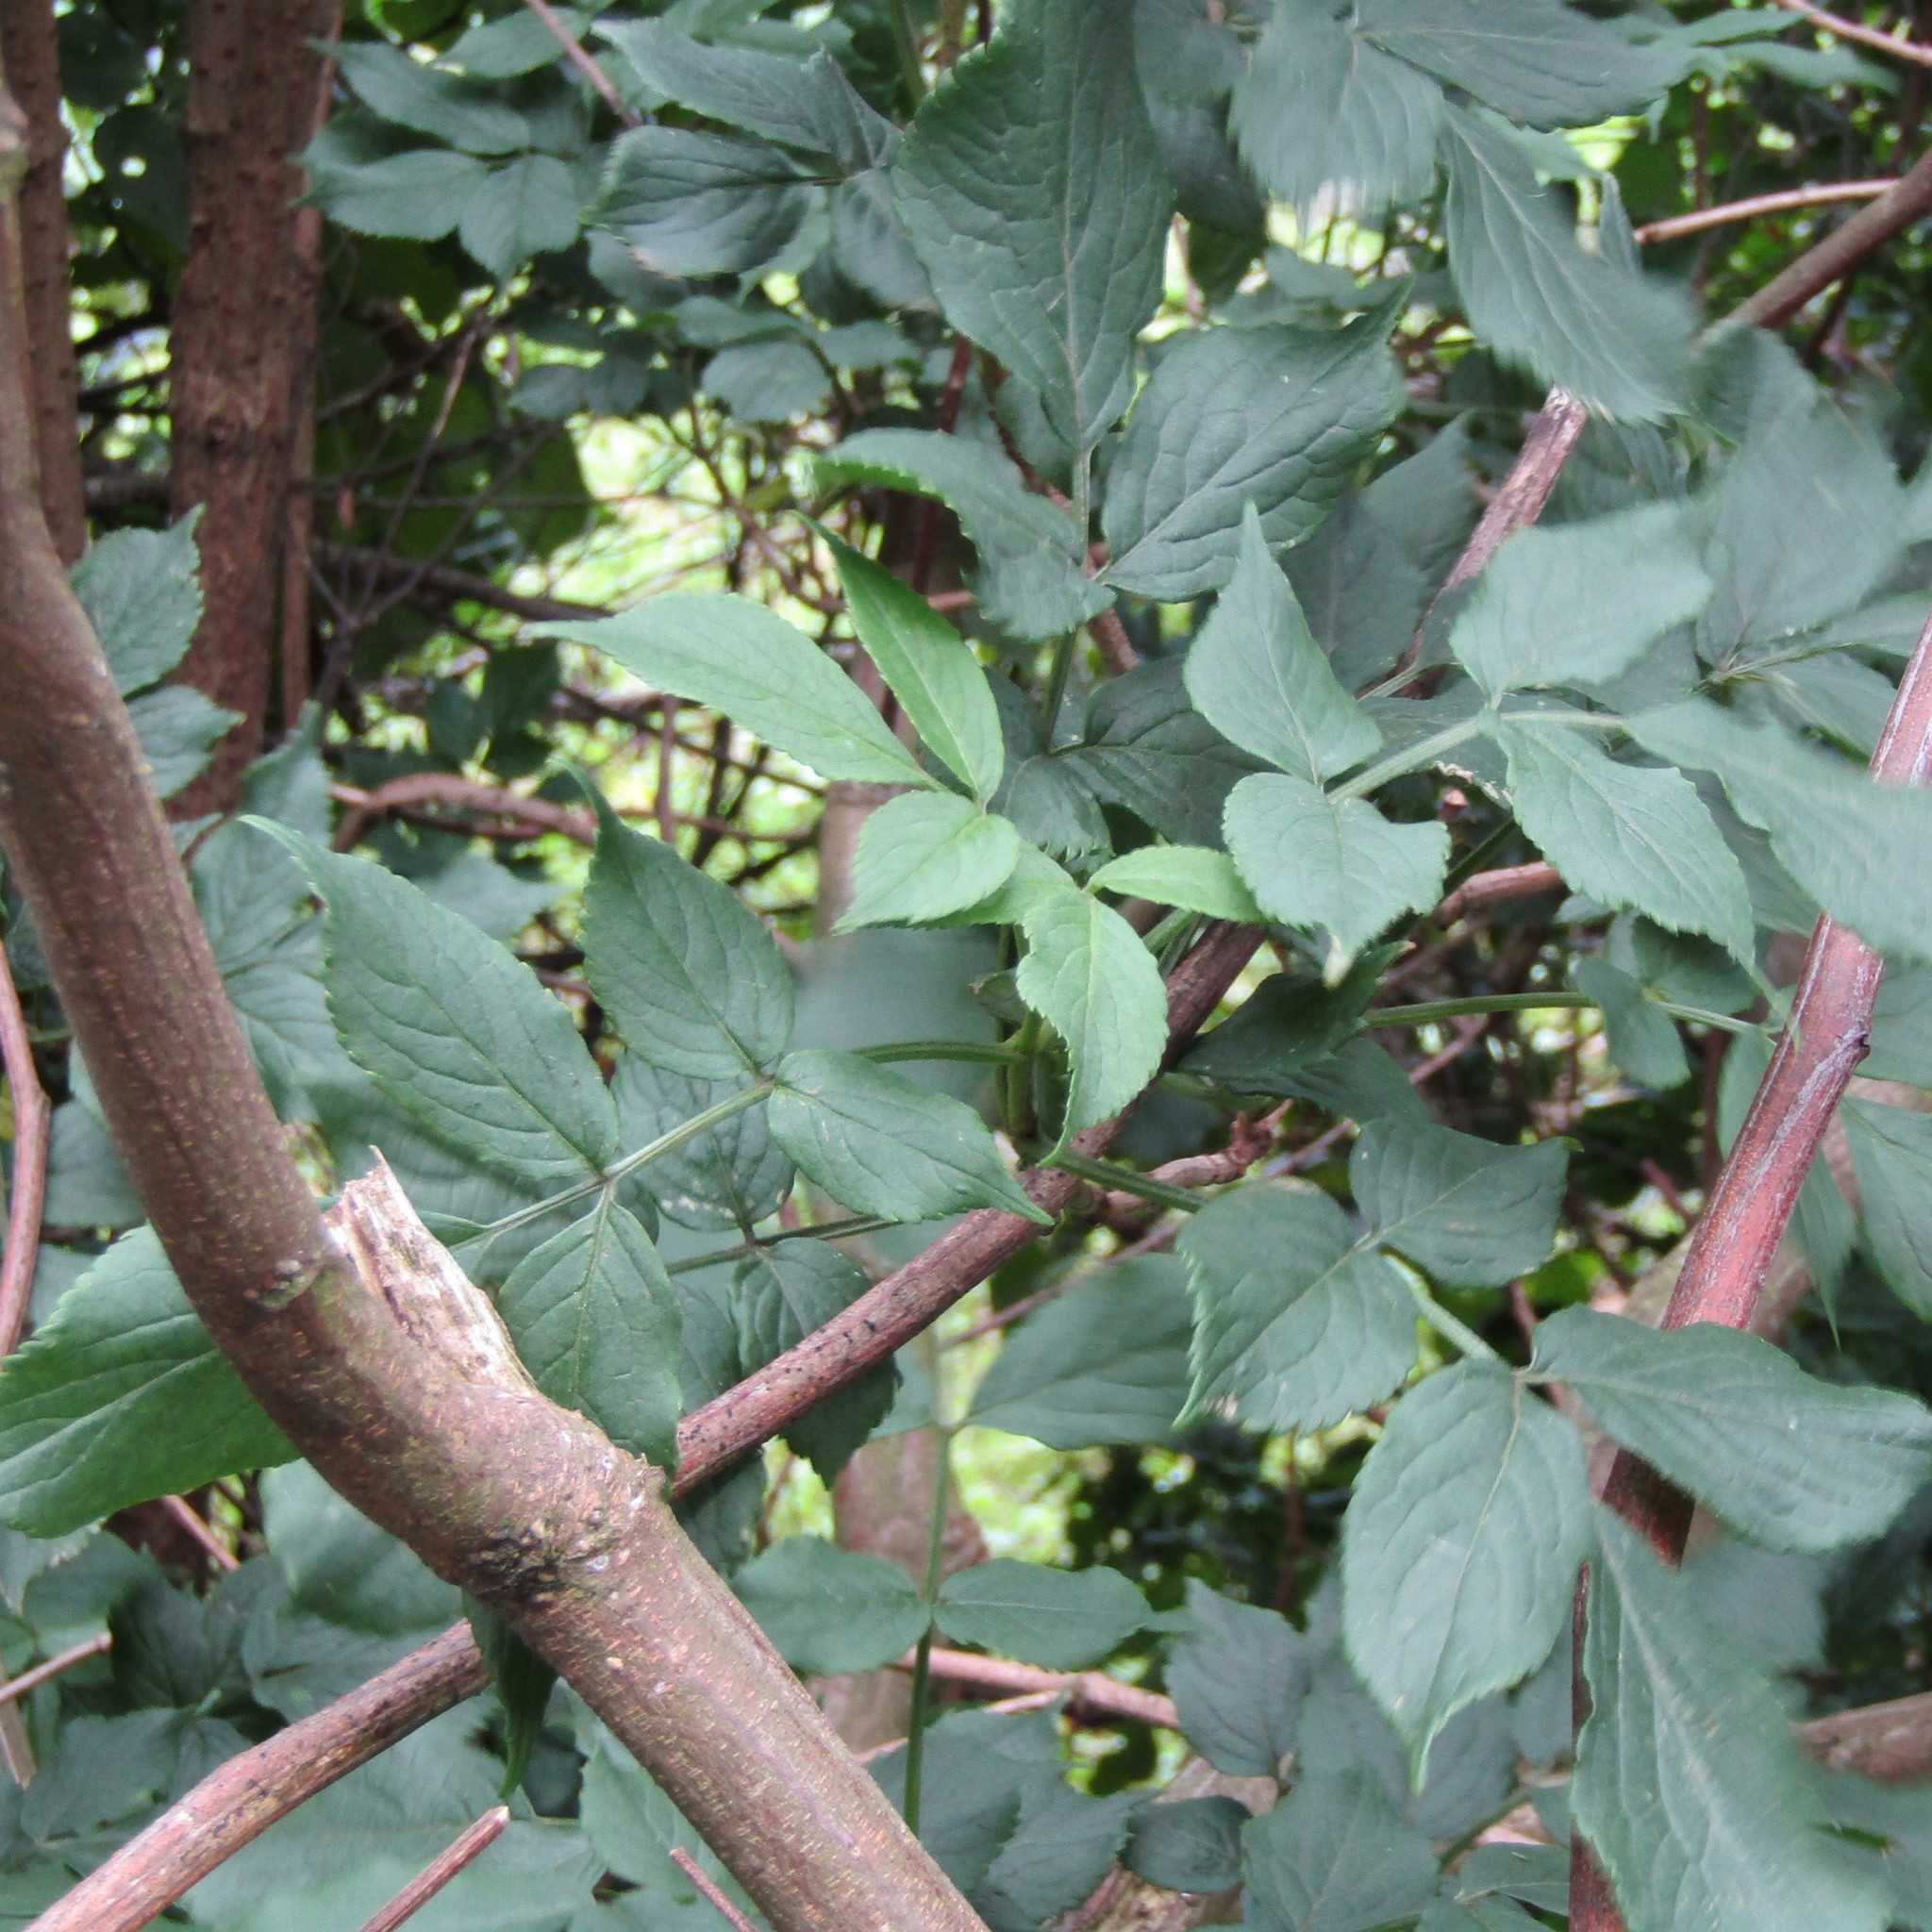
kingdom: Plantae
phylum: Tracheophyta
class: Magnoliopsida
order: Dipsacales
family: Viburnaceae
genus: Sambucus
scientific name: Sambucus nigra
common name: Elder
